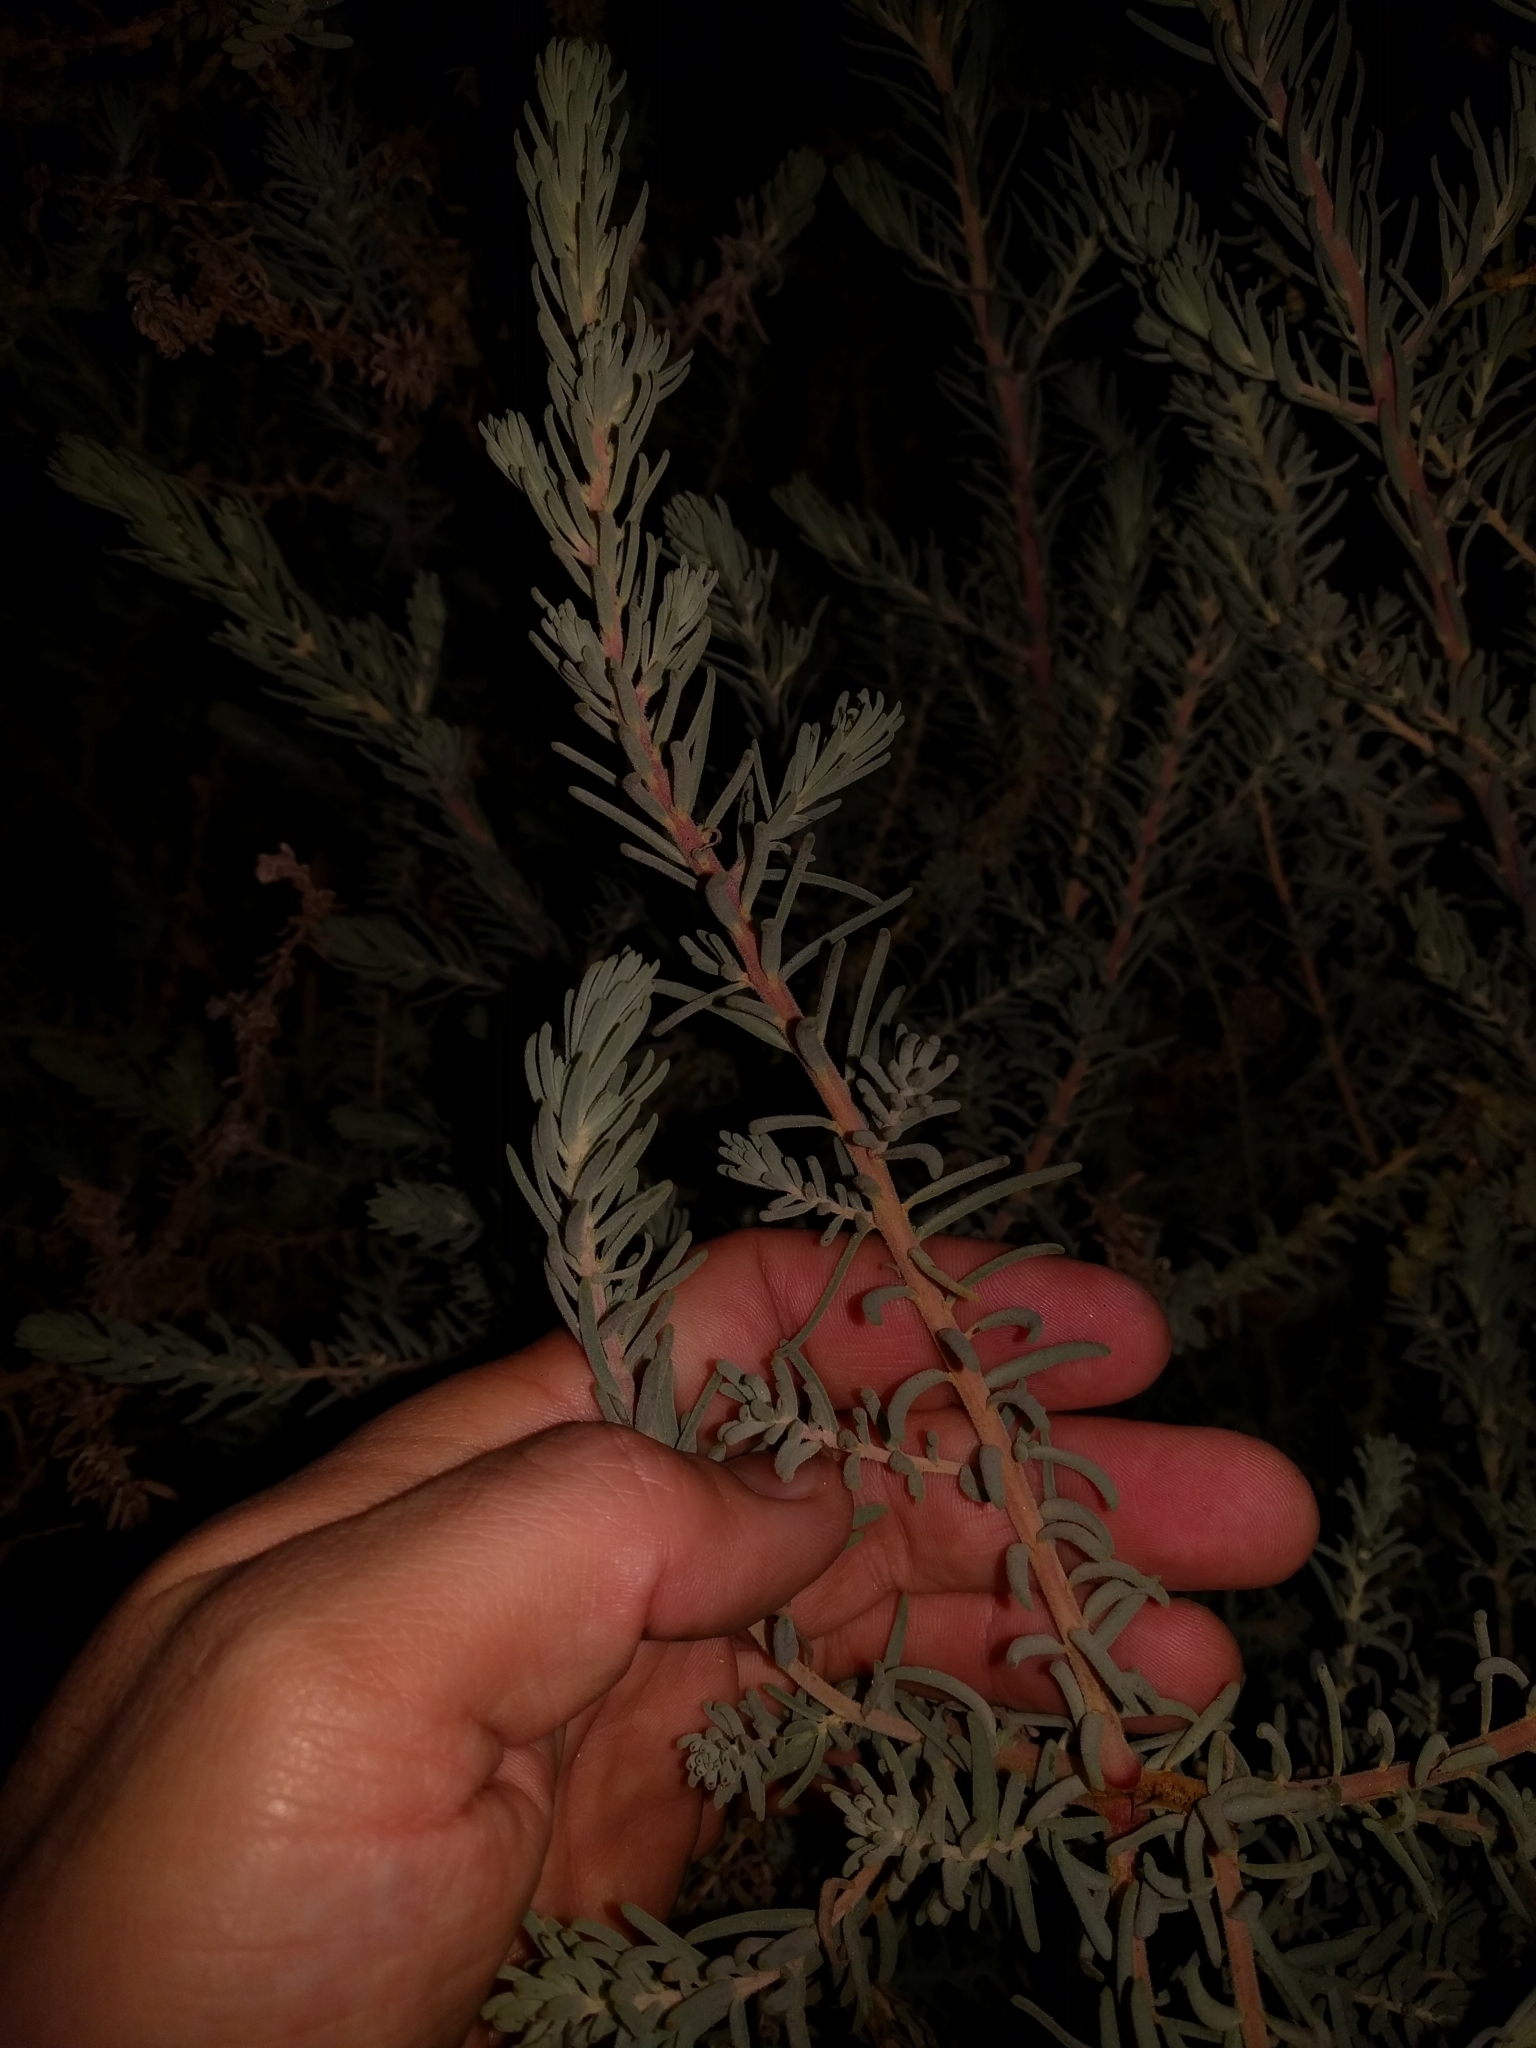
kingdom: Plantae
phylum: Tracheophyta
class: Magnoliopsida
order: Caryophyllales
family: Amaranthaceae
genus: Suaeda
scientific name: Suaeda taxifolia
